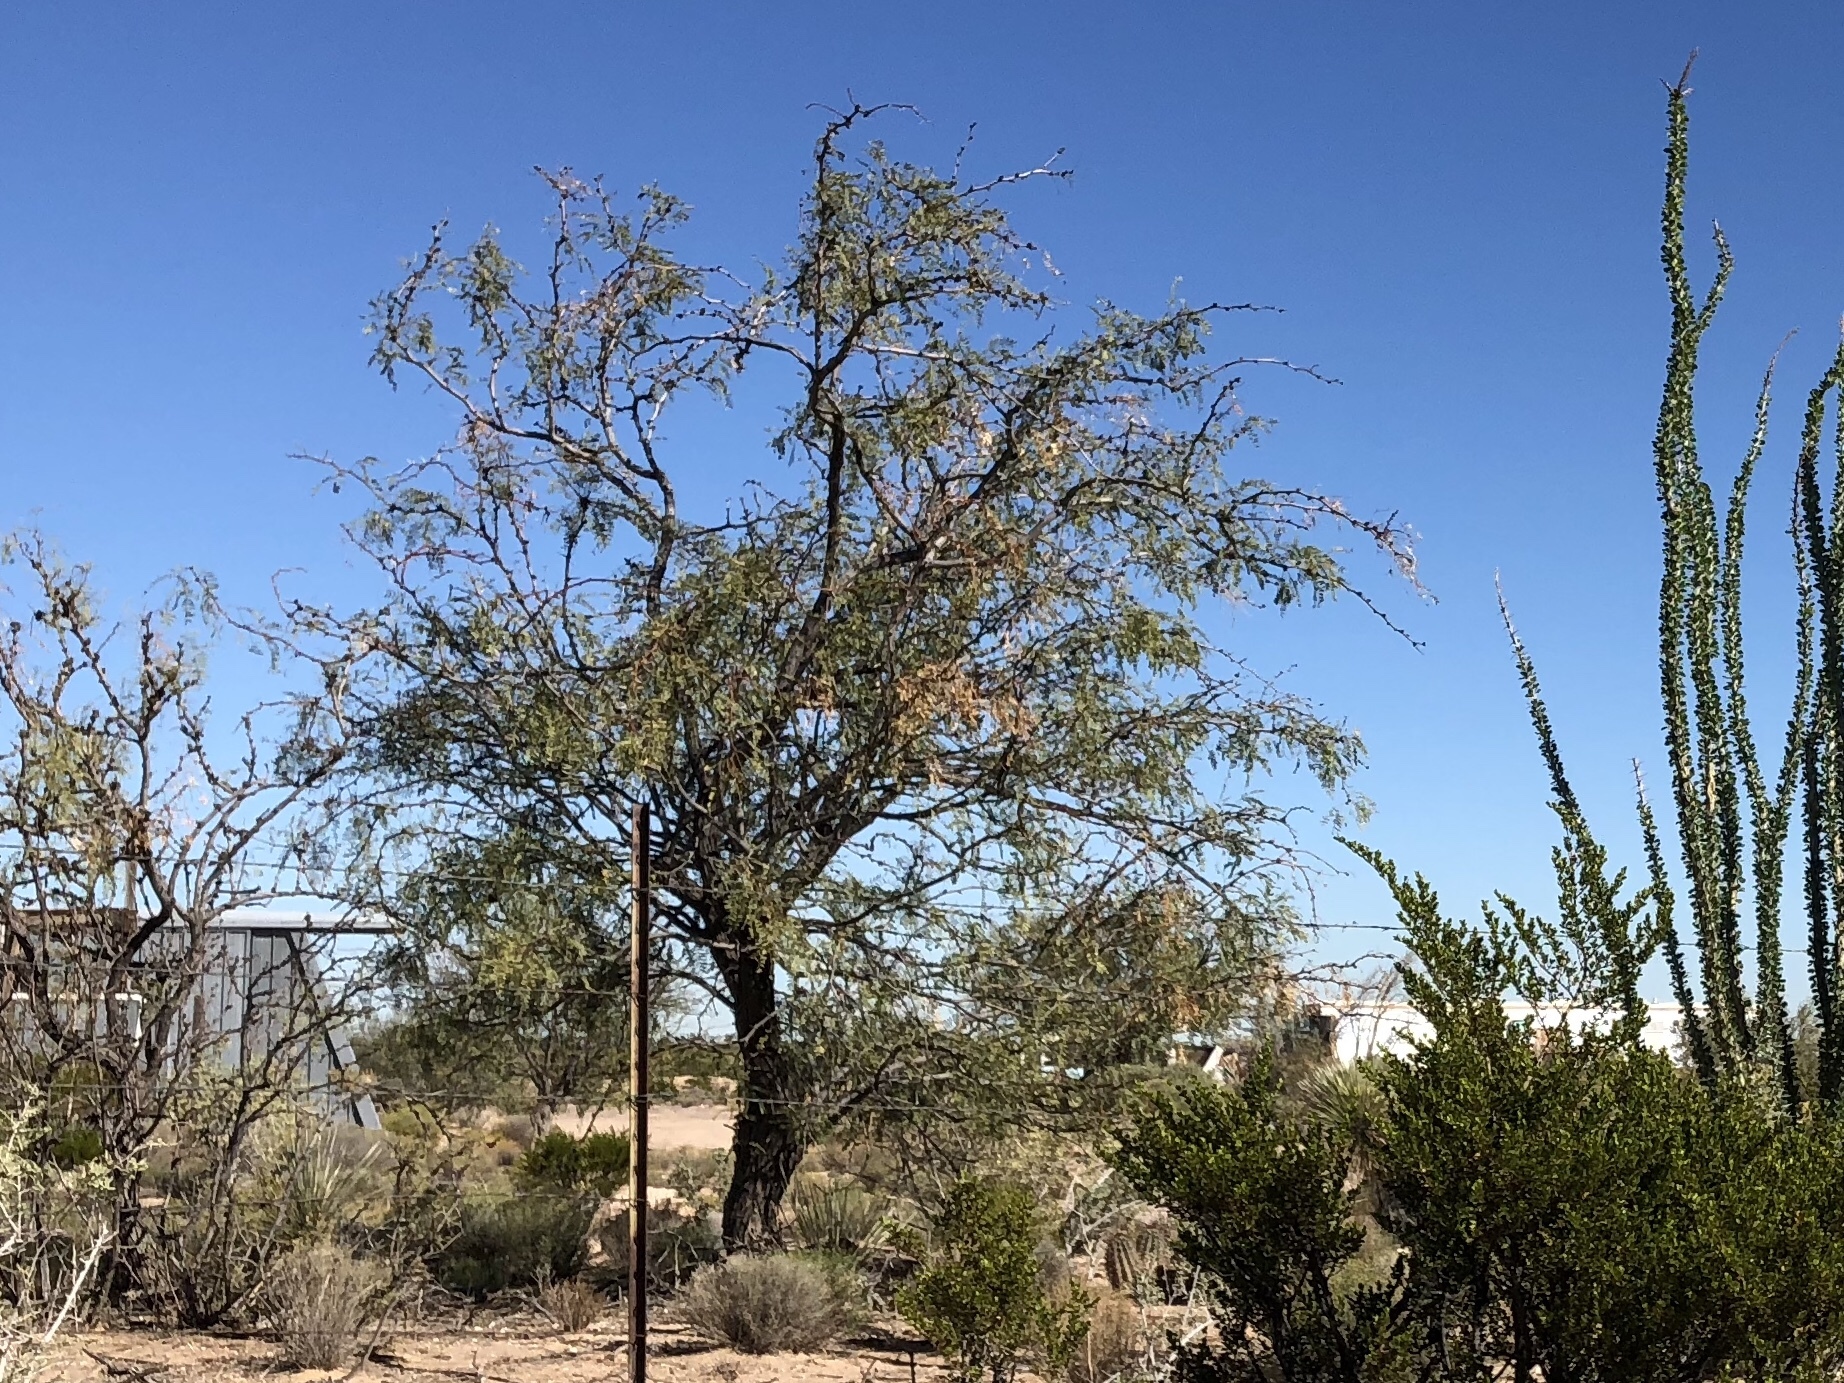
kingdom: Plantae
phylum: Tracheophyta
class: Magnoliopsida
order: Fabales
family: Fabaceae
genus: Prosopis
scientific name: Prosopis glandulosa
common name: Honey mesquite
